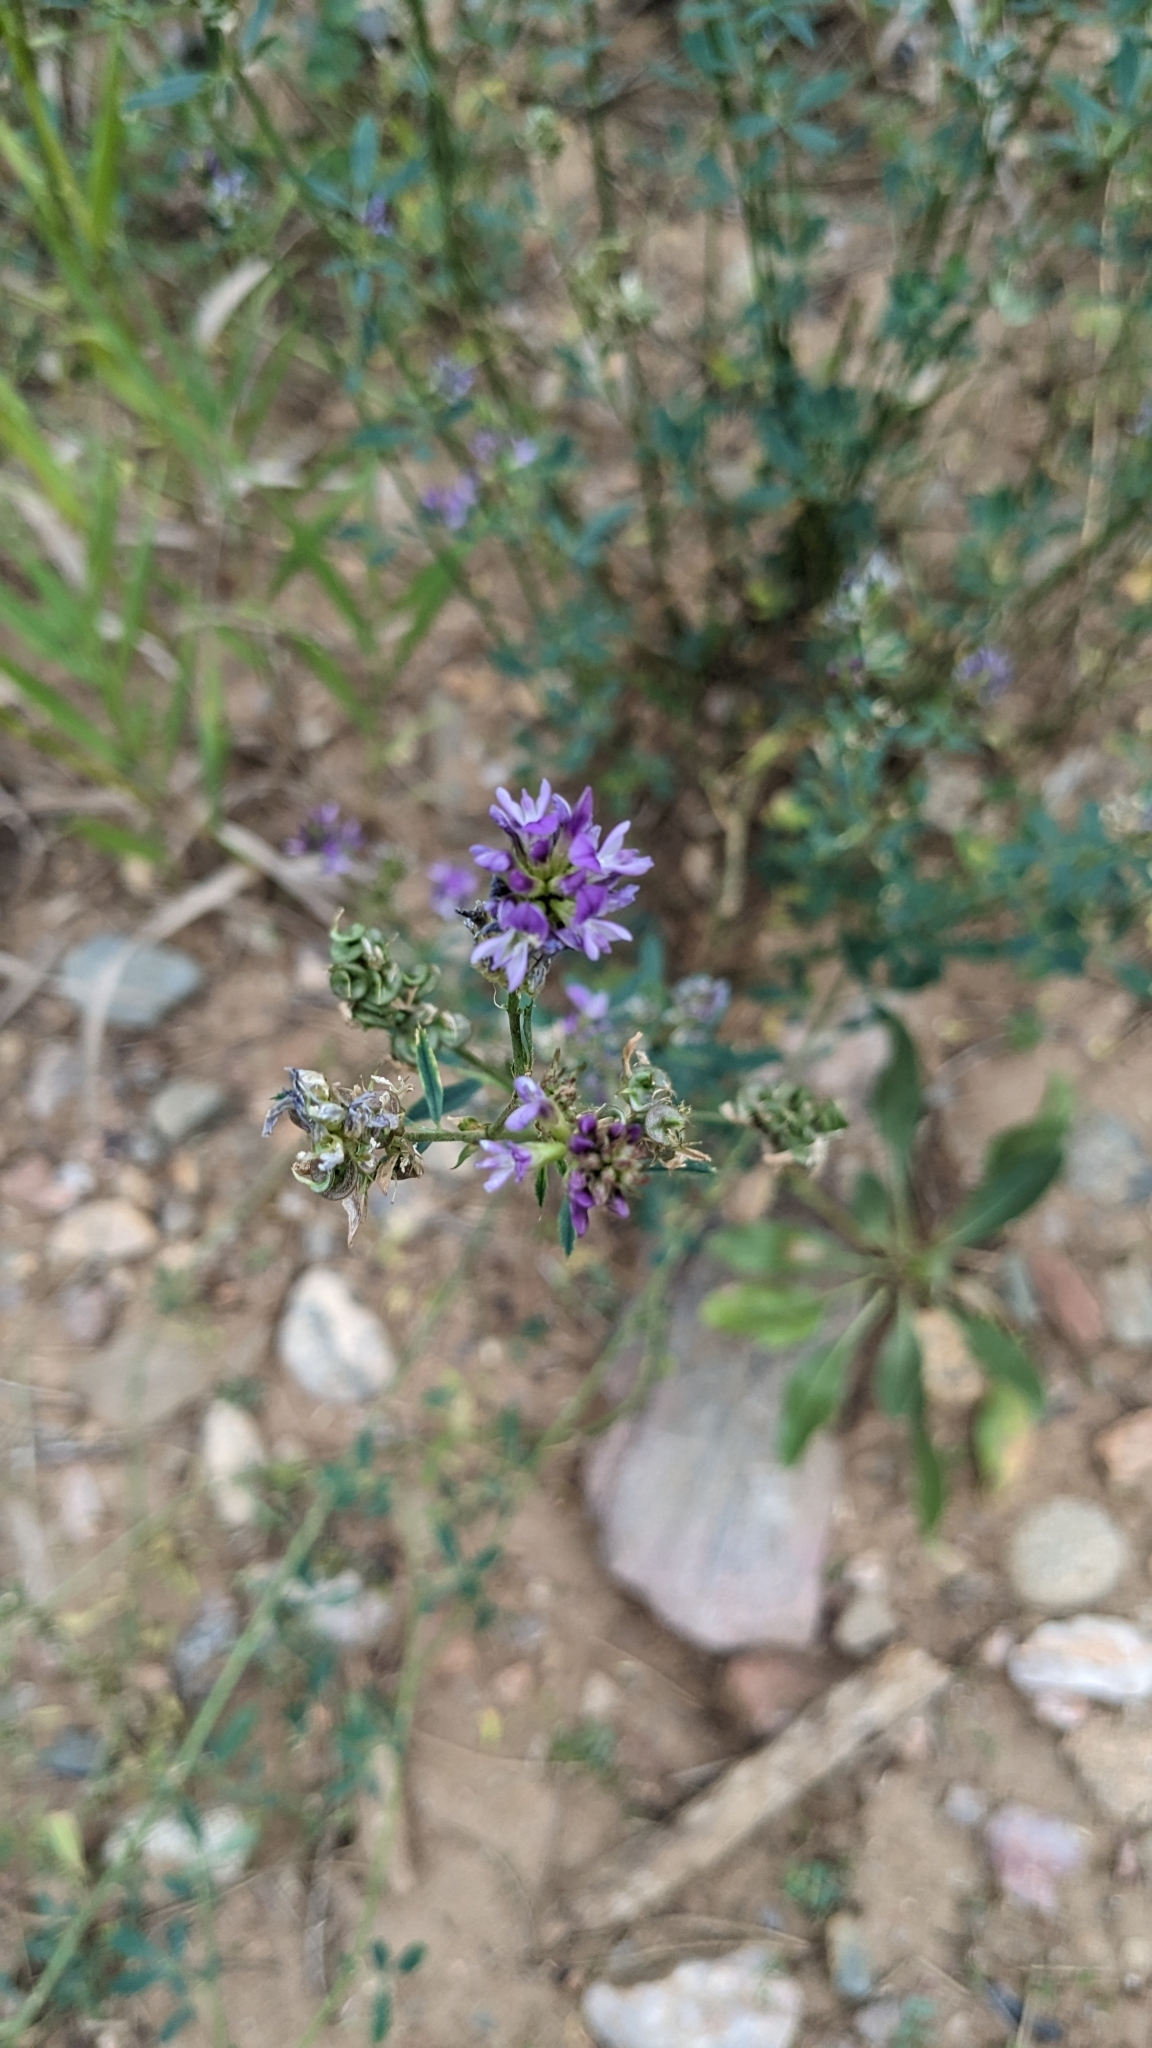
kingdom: Plantae
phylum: Tracheophyta
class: Magnoliopsida
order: Fabales
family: Fabaceae
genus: Medicago
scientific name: Medicago sativa
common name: Alfalfa
